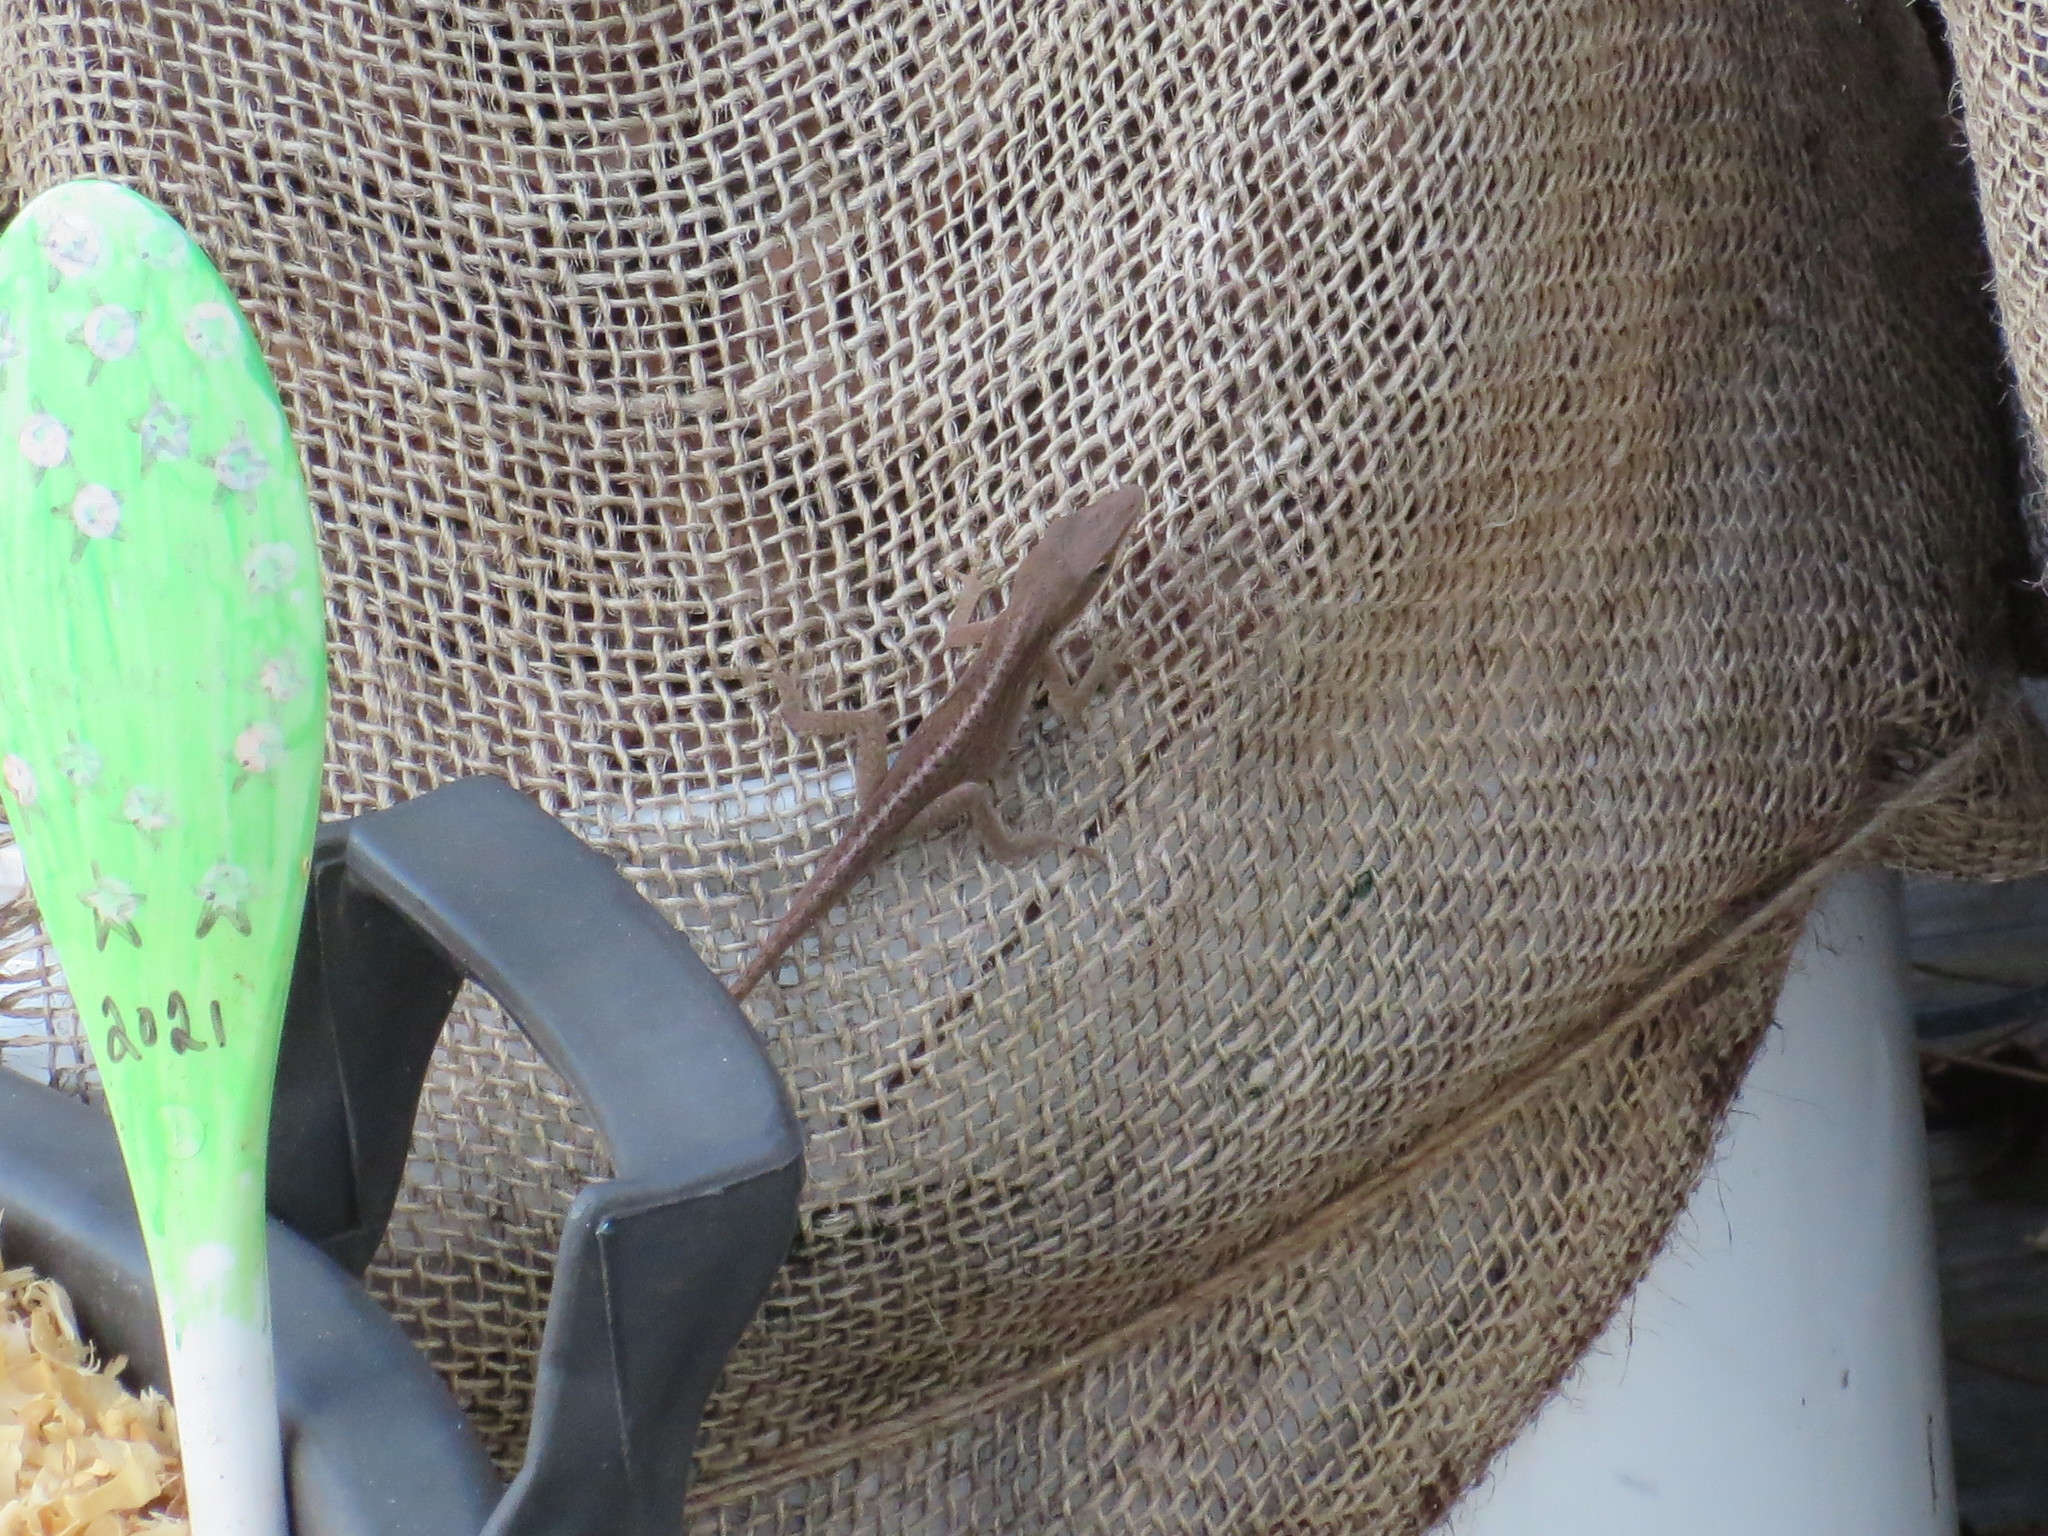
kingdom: Animalia
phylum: Chordata
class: Squamata
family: Dactyloidae
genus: Anolis
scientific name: Anolis carolinensis
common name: Green anole
